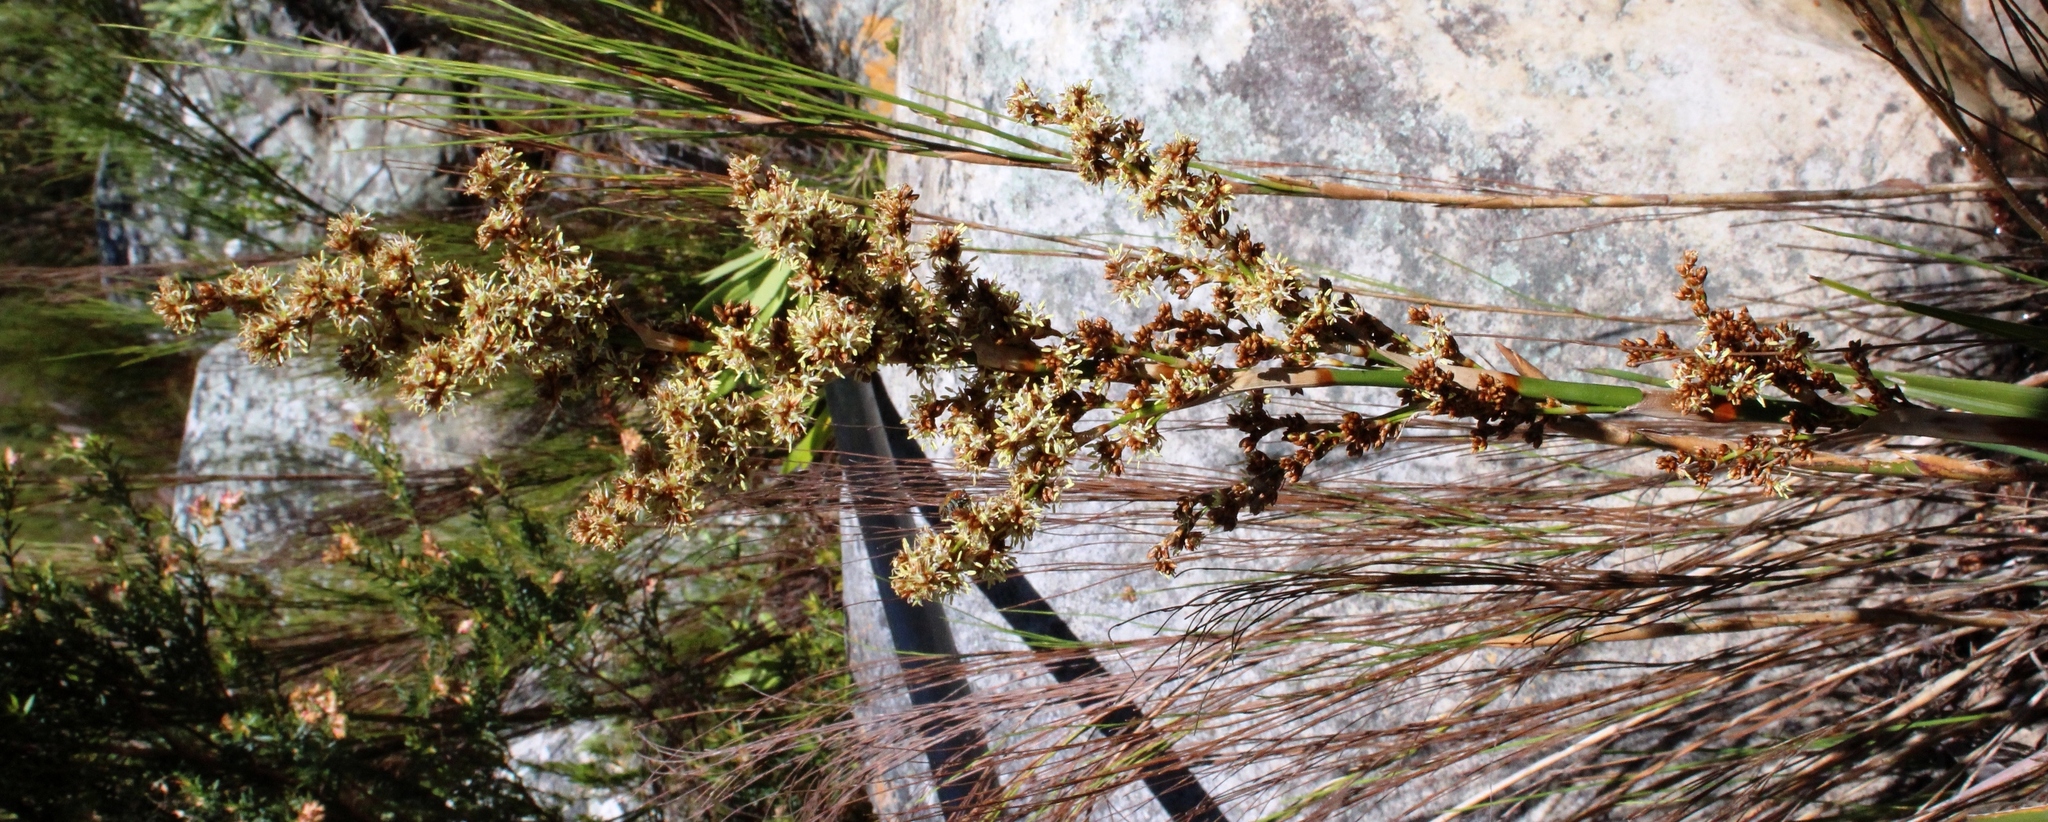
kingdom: Plantae
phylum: Tracheophyta
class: Liliopsida
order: Poales
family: Thurniaceae
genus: Prionium
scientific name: Prionium serratum
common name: Palmiet
